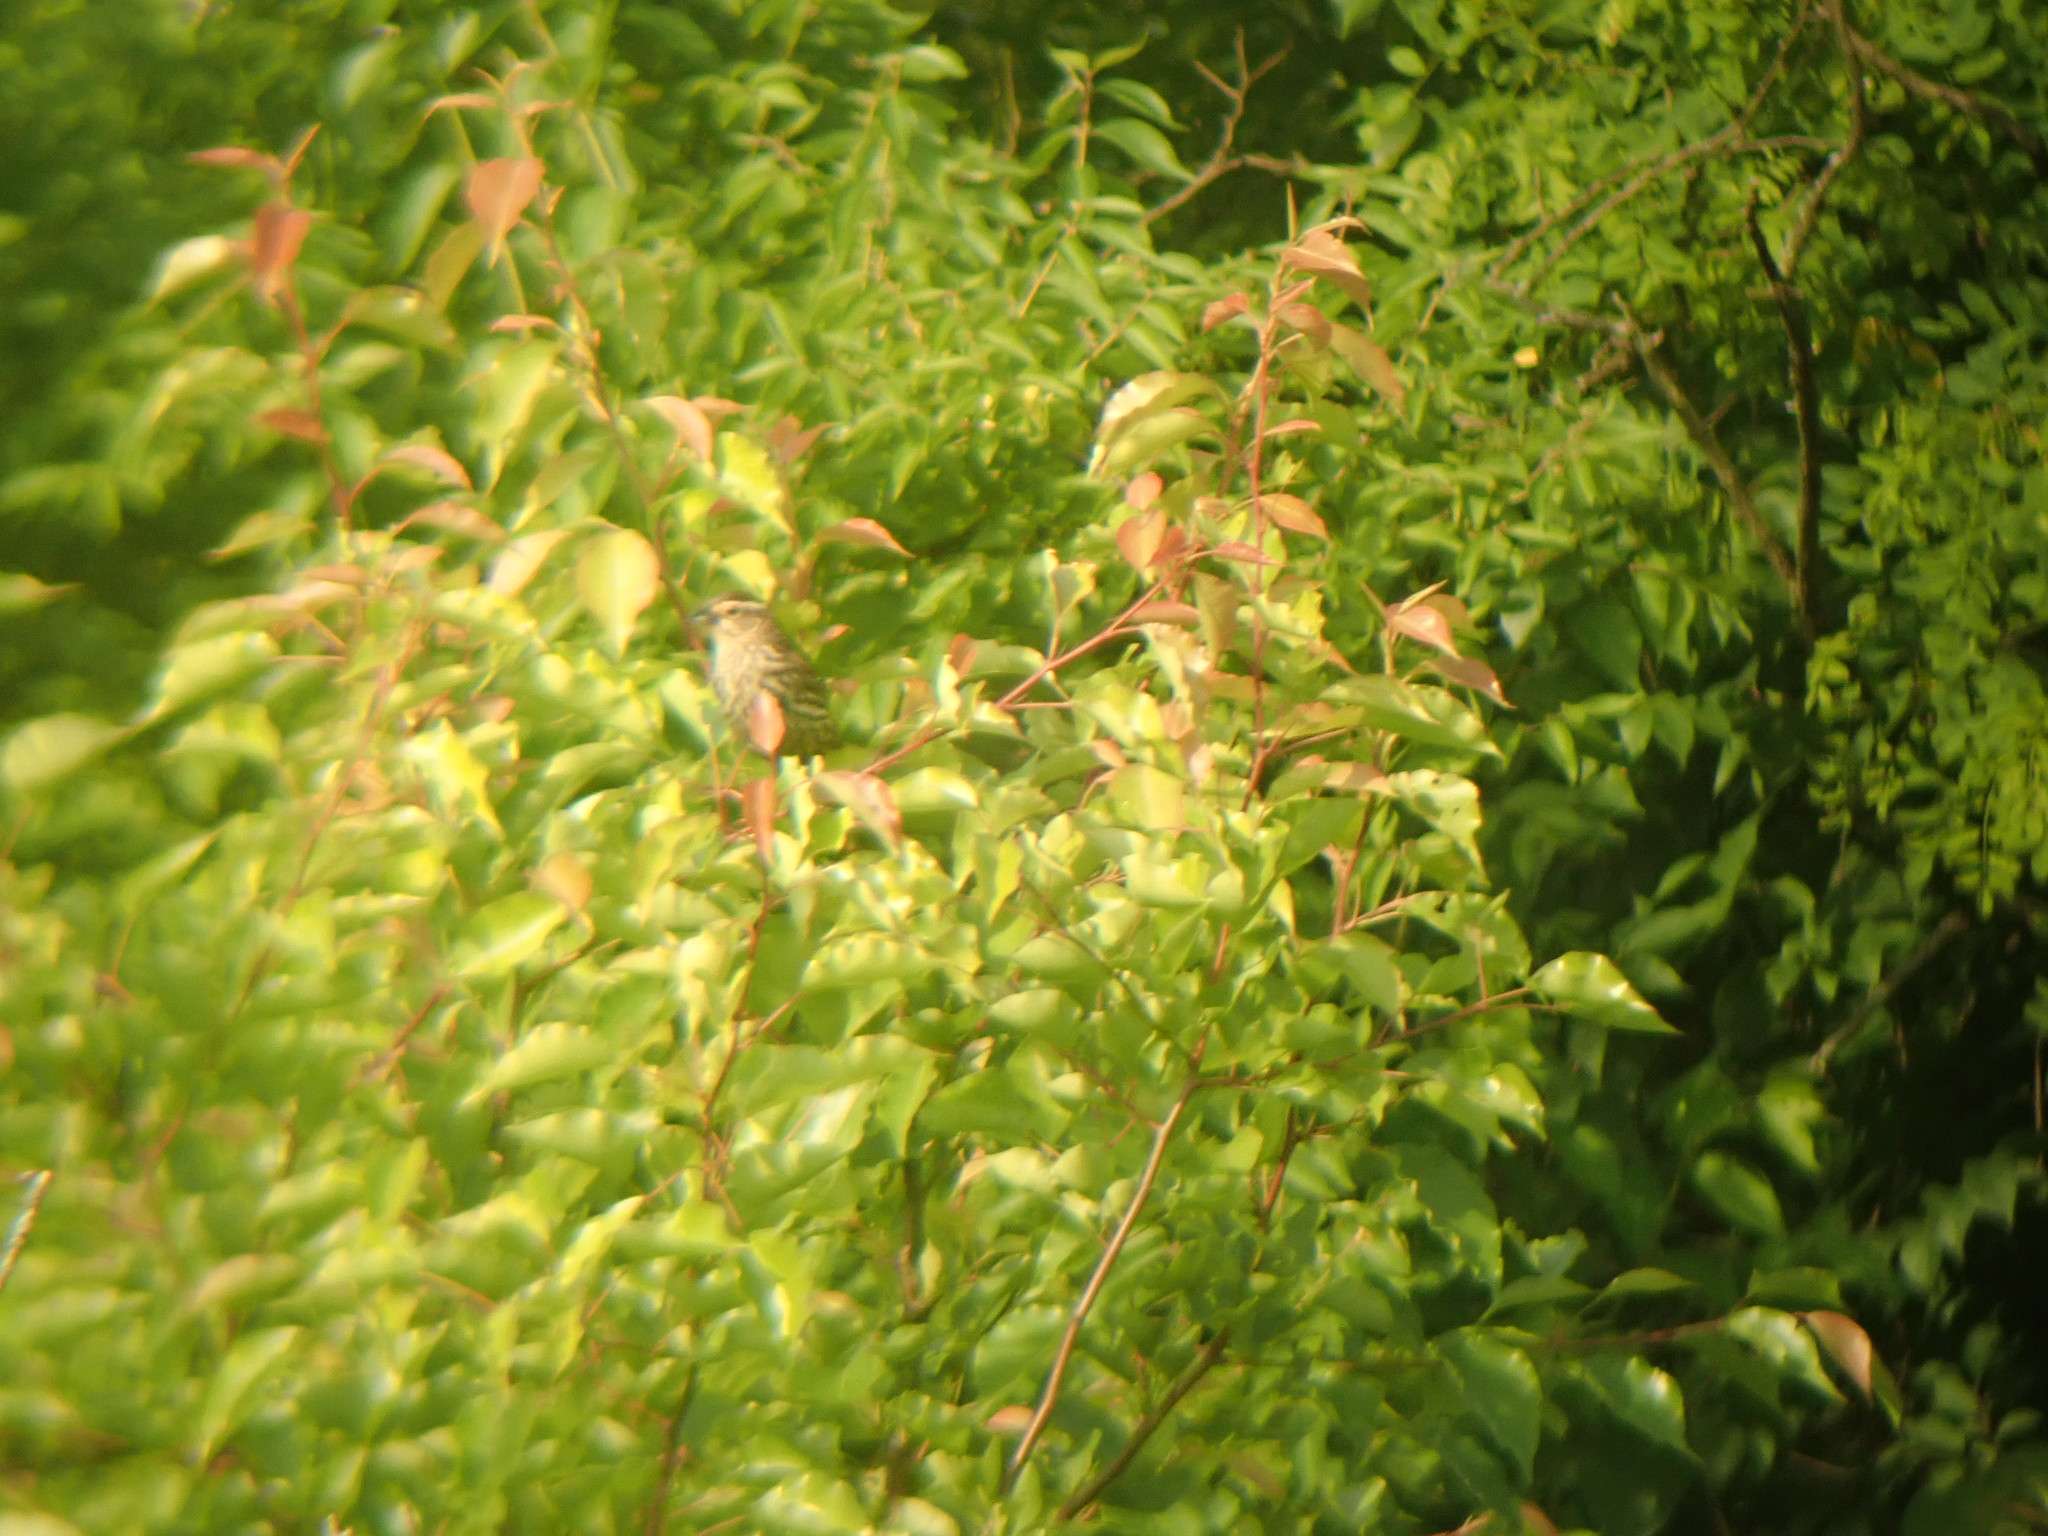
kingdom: Animalia
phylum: Chordata
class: Aves
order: Passeriformes
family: Icteridae
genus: Agelaius
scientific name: Agelaius phoeniceus
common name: Red-winged blackbird
